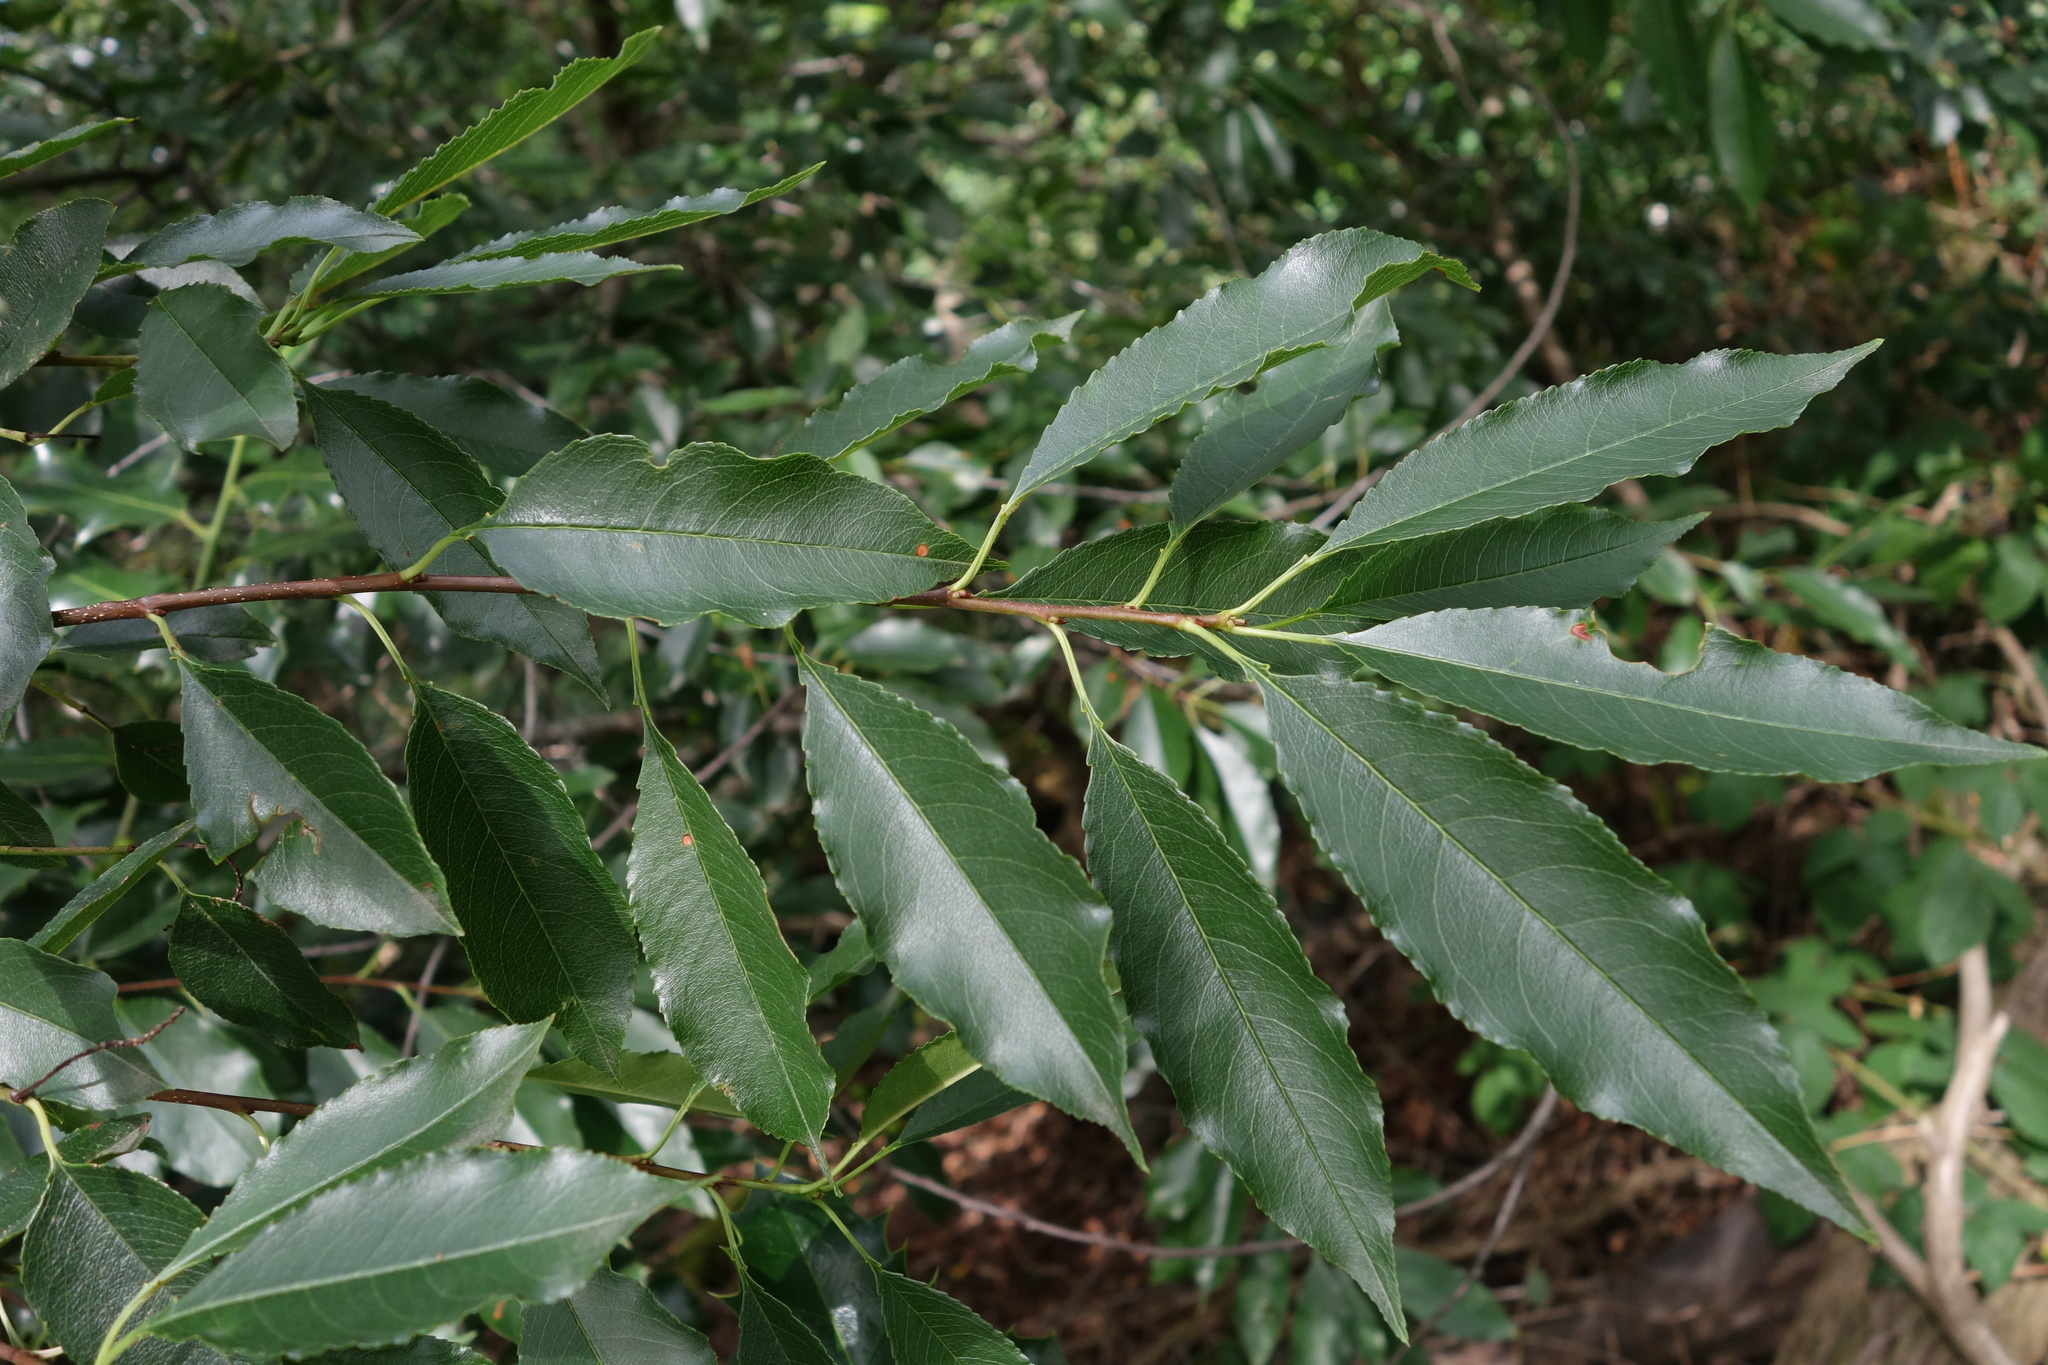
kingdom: Plantae
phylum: Tracheophyta
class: Magnoliopsida
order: Rosales
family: Rosaceae
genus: Prunus
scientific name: Prunus serotina
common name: Black cherry
